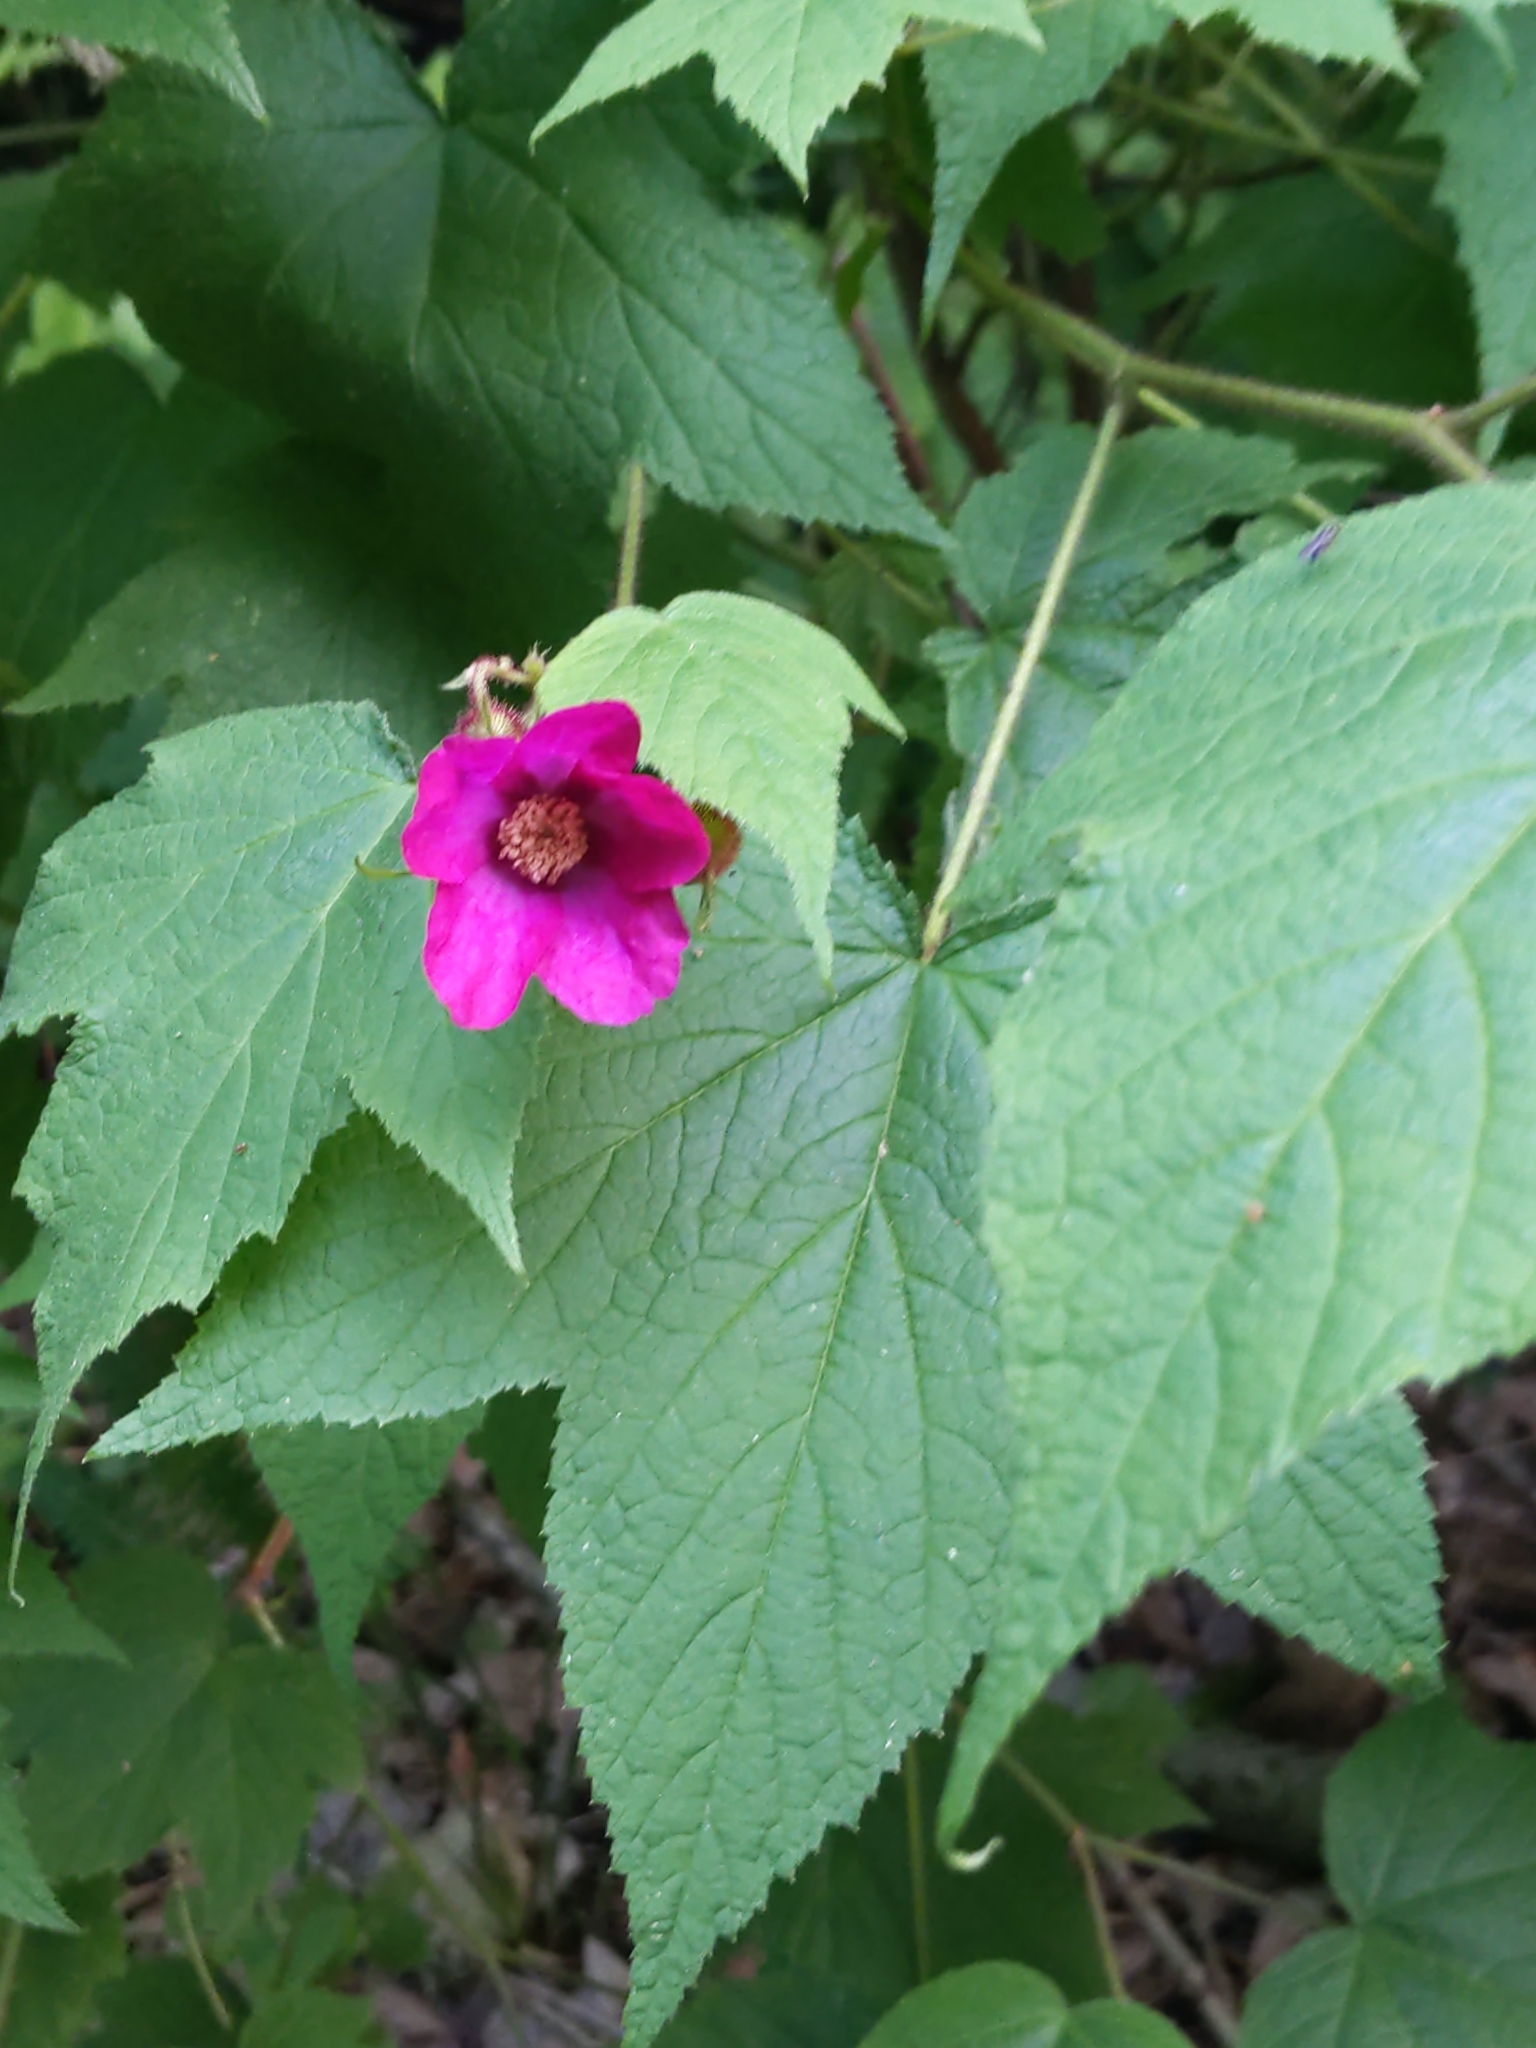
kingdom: Plantae
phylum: Tracheophyta
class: Magnoliopsida
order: Rosales
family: Rosaceae
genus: Rubus
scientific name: Rubus odoratus
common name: Purple-flowered raspberry
